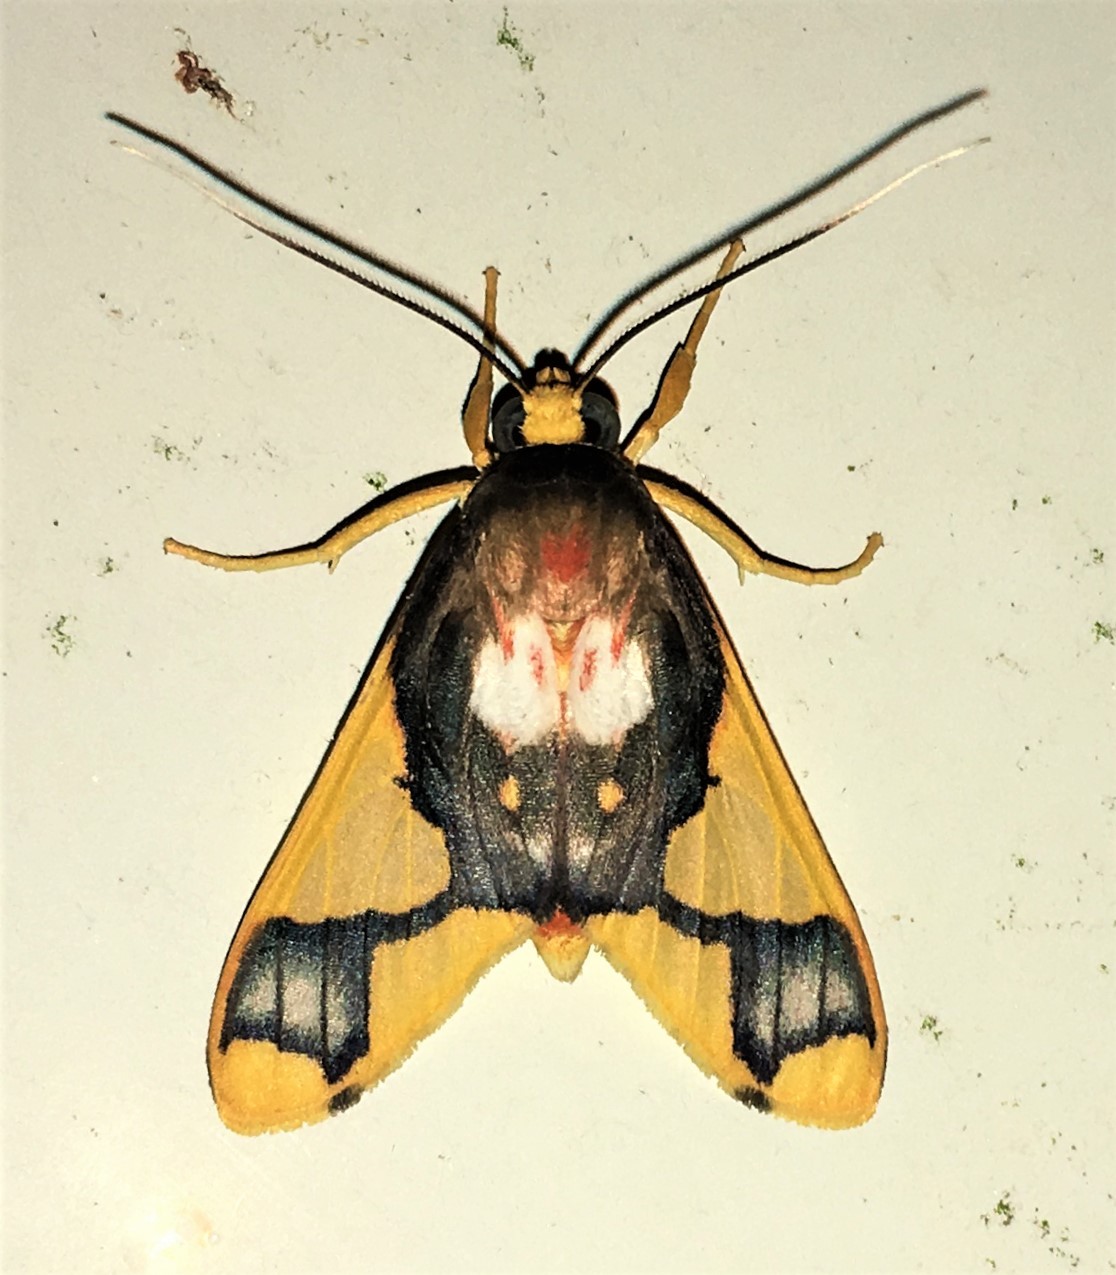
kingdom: Animalia
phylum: Arthropoda
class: Insecta
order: Lepidoptera
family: Erebidae
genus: Paranerita
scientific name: Paranerita patara
